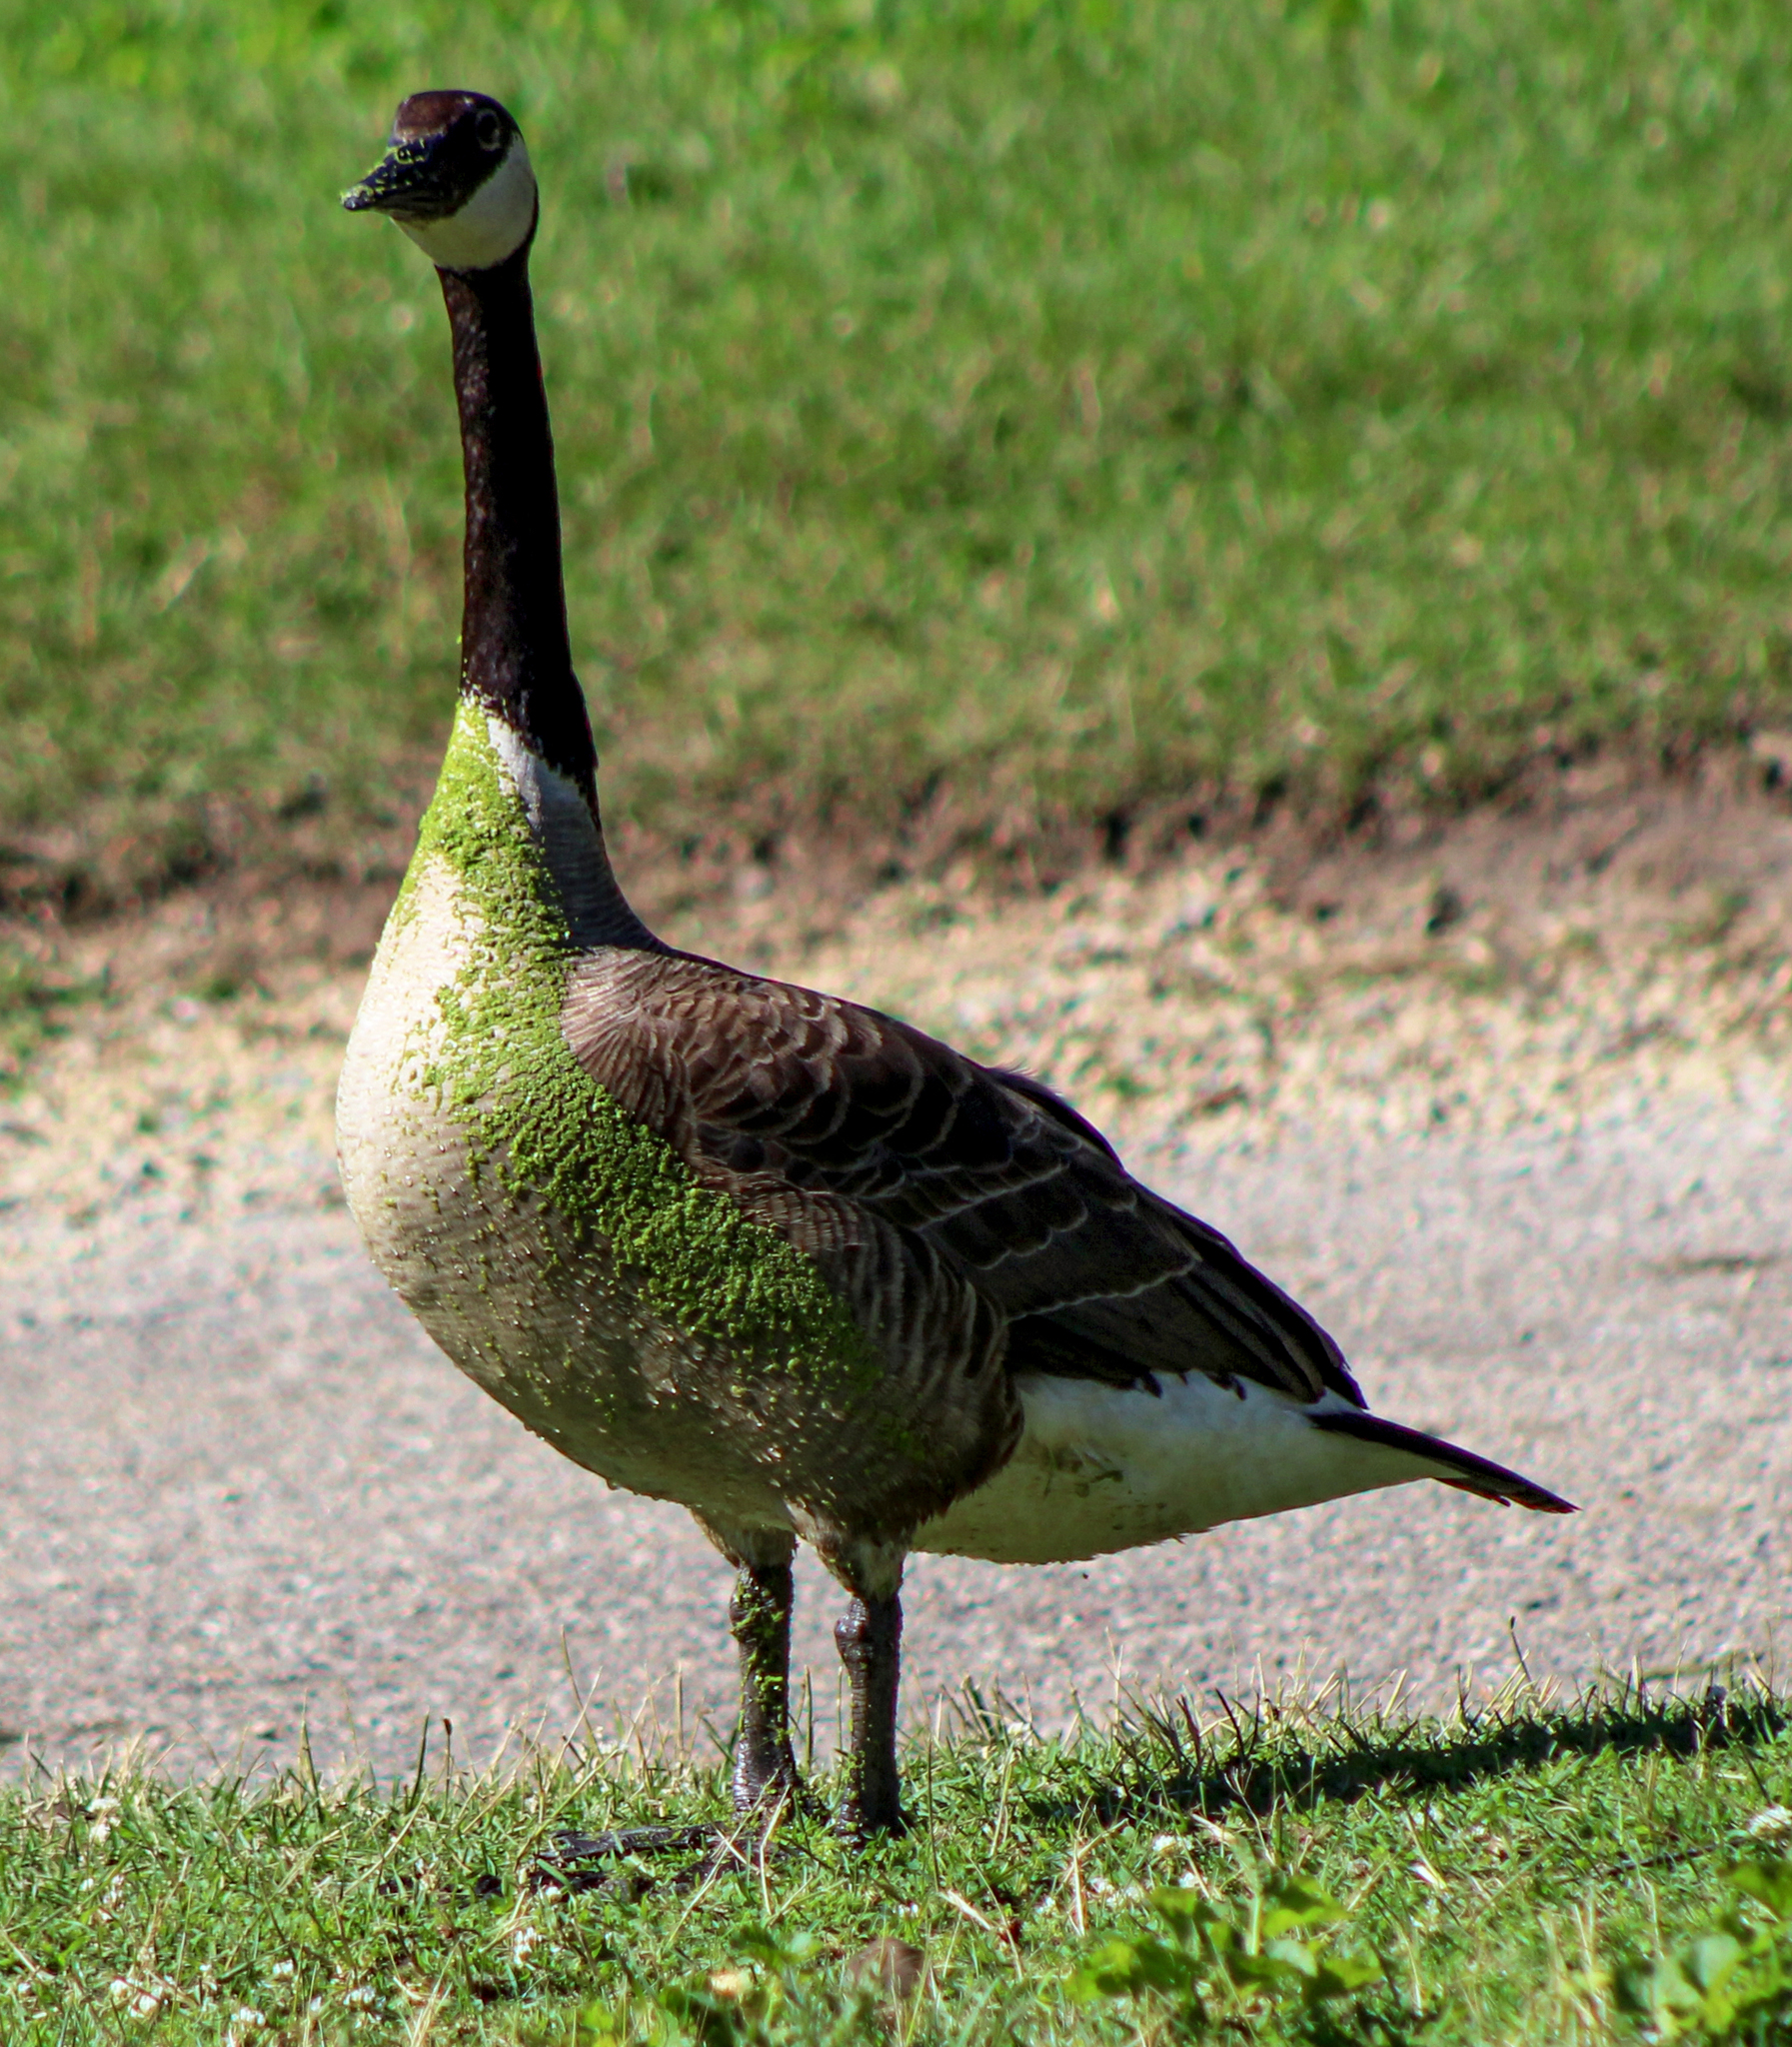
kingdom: Animalia
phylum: Chordata
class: Aves
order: Anseriformes
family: Anatidae
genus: Branta
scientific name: Branta canadensis
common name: Canada goose
